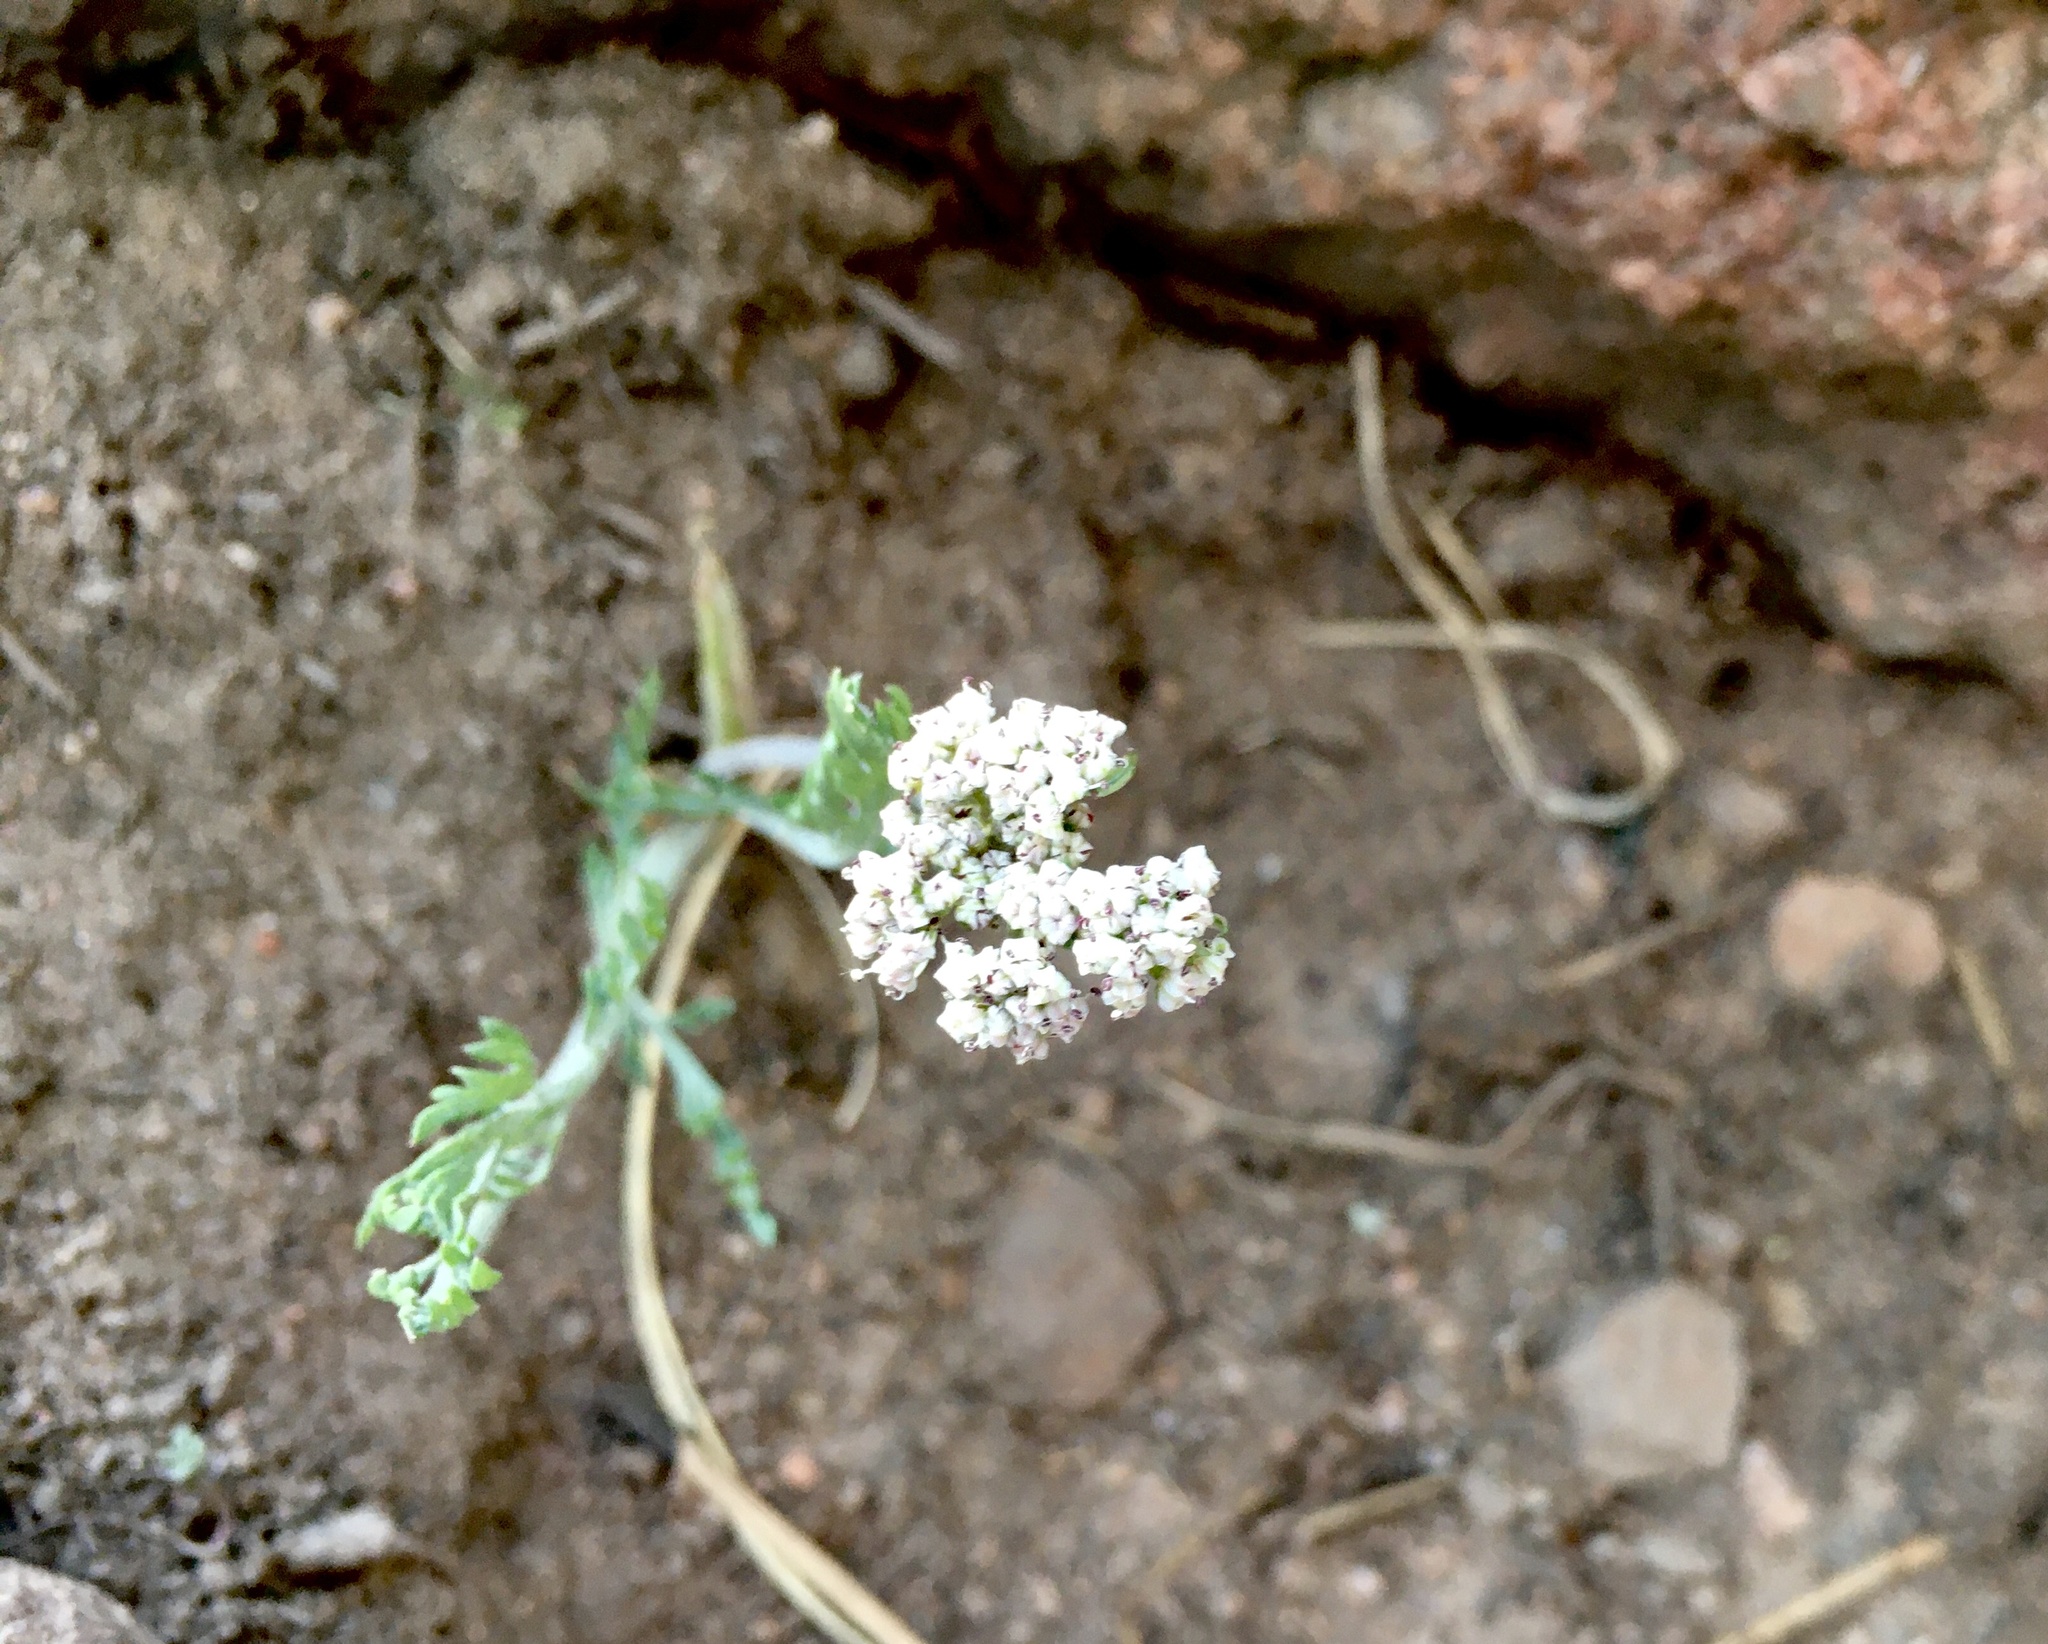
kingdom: Plantae
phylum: Tracheophyta
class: Magnoliopsida
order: Apiales
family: Apiaceae
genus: Lomatium
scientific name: Lomatium orientale
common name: Eastern cous
